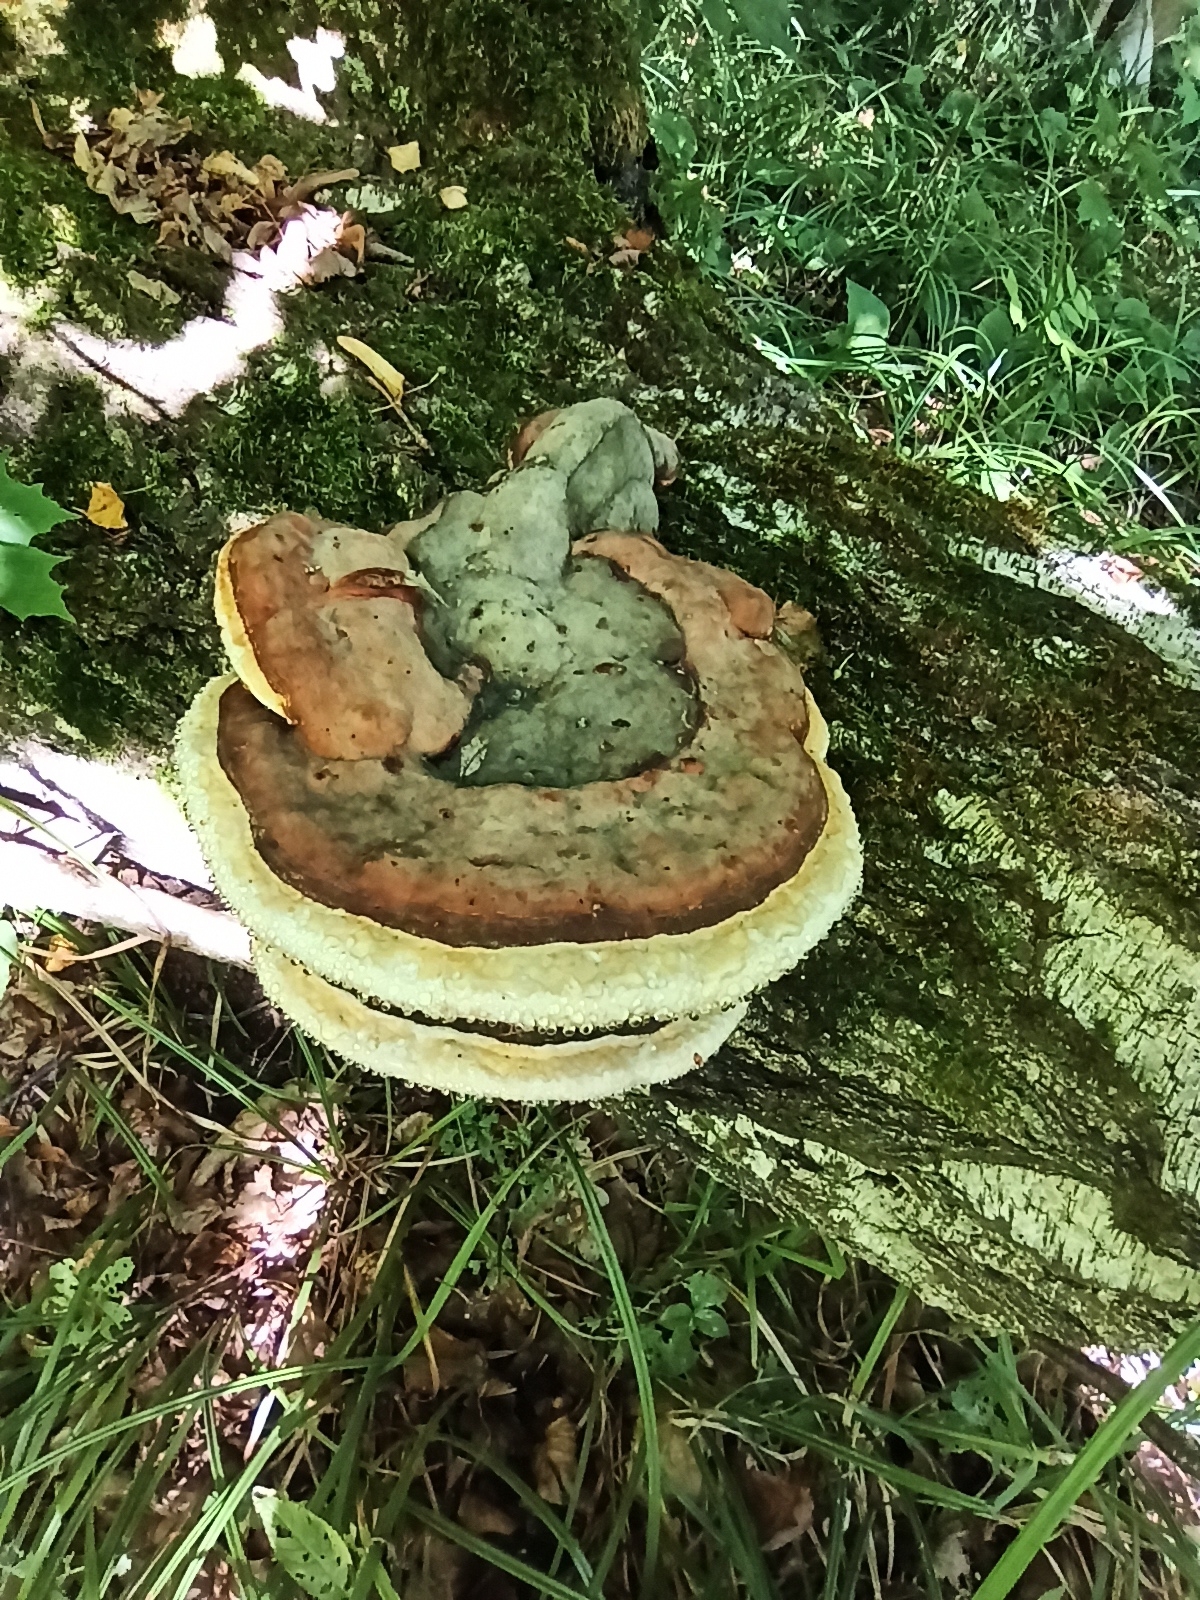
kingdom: Fungi
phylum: Basidiomycota
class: Agaricomycetes
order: Polyporales
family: Fomitopsidaceae
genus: Fomitopsis
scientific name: Fomitopsis pinicola
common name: Red-belted bracket
